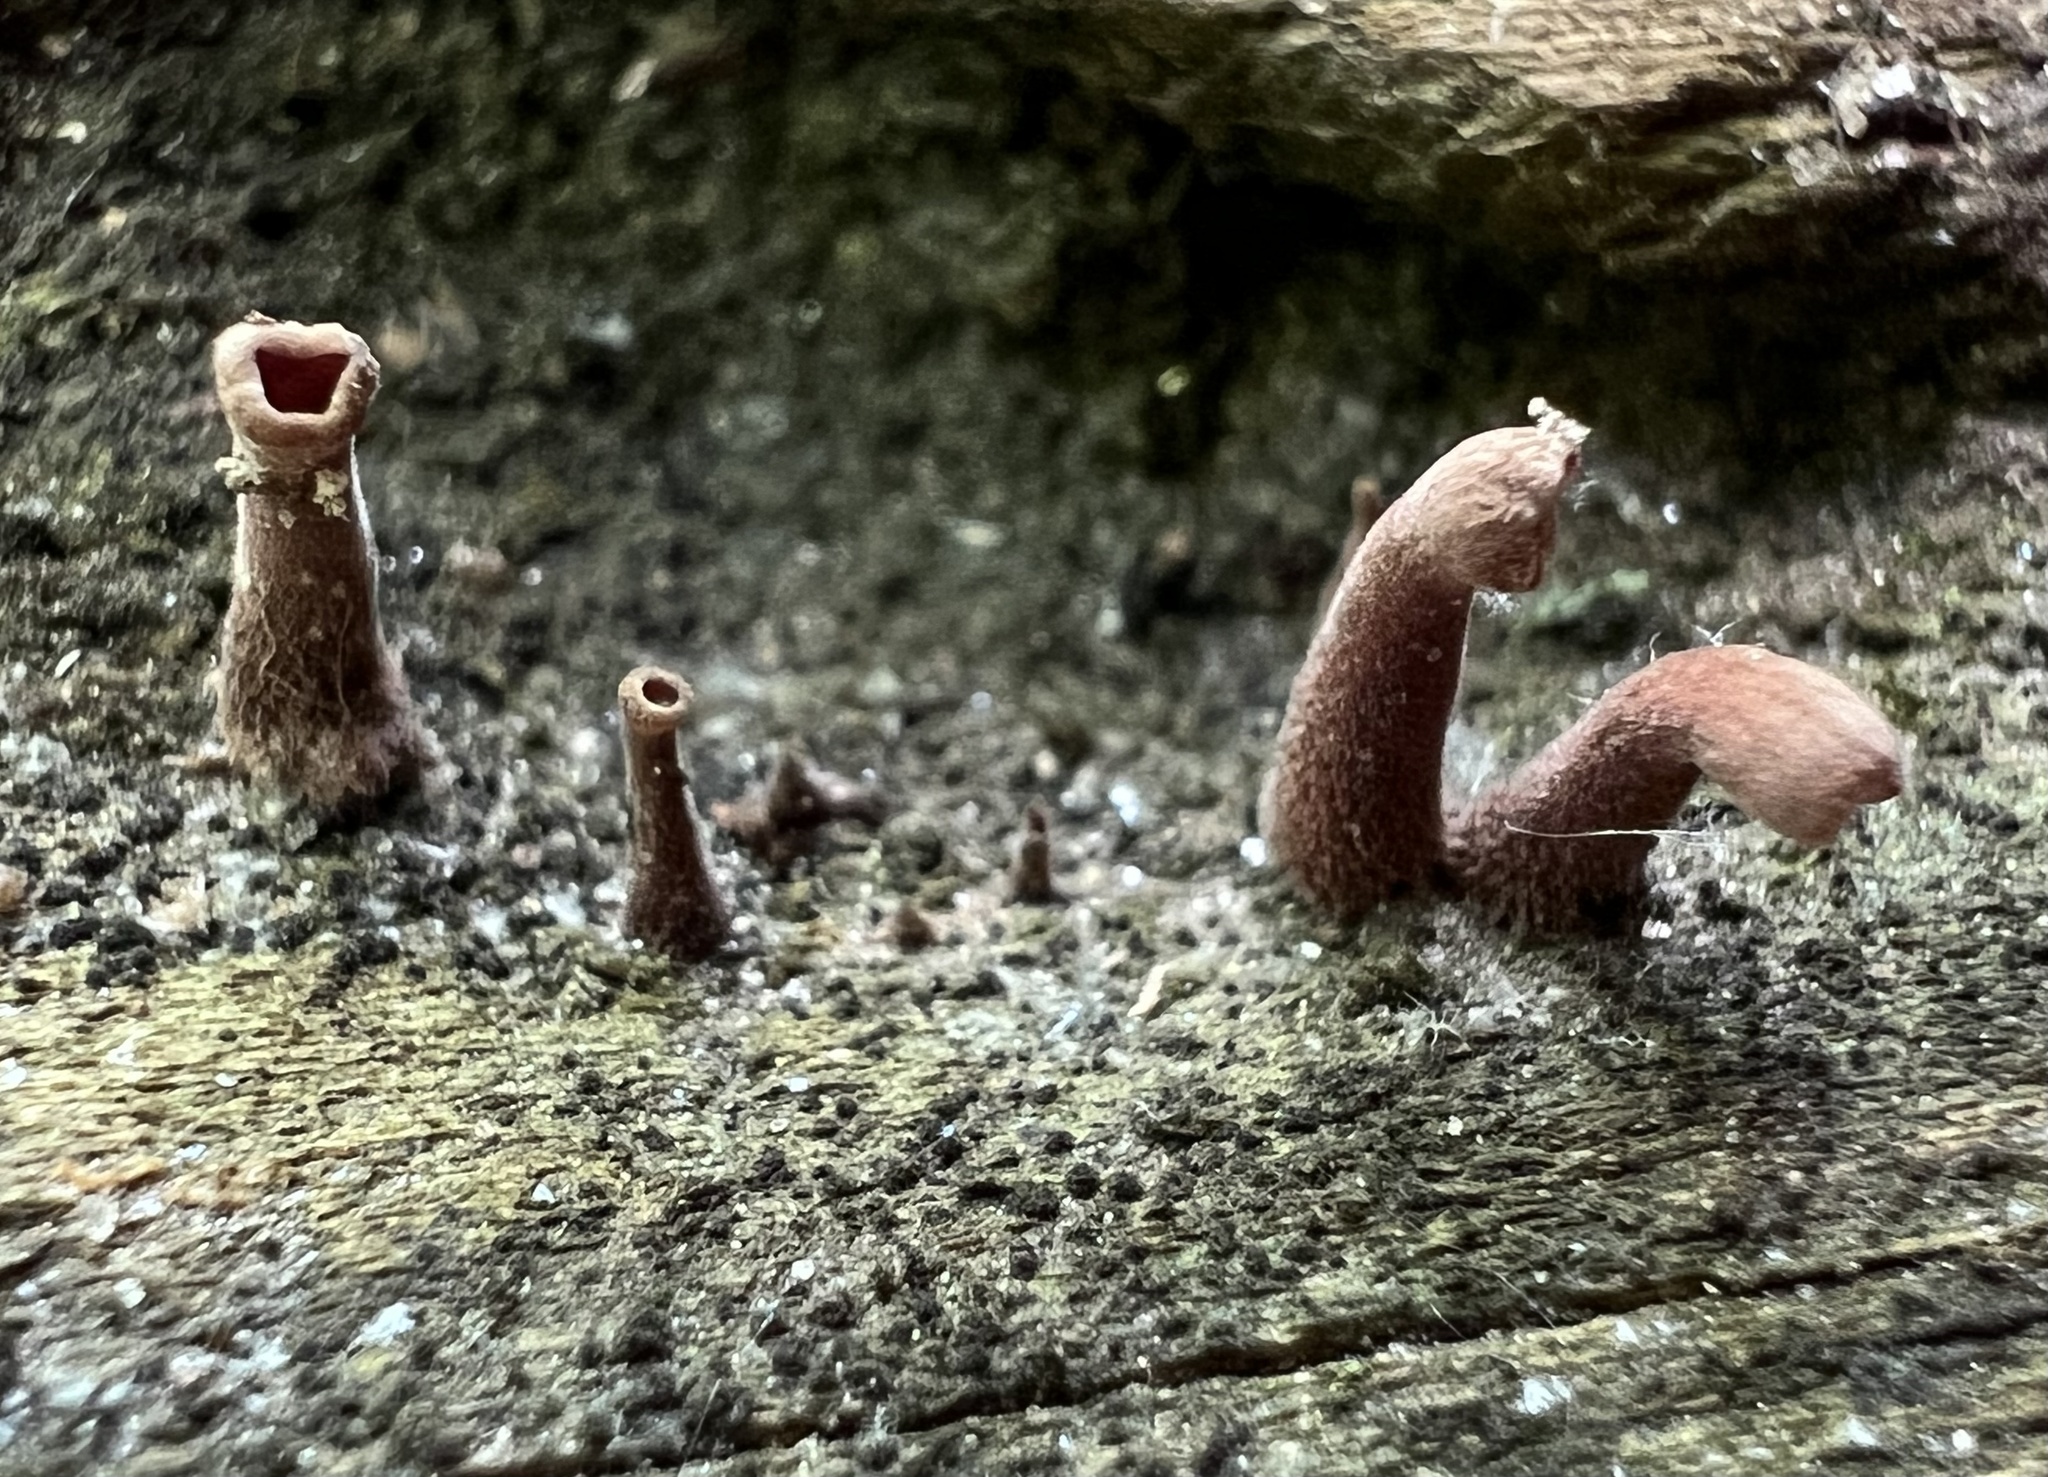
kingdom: Fungi
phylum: Basidiomycota
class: Dacrymycetes
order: Dacrymycetales
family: Dacrymycetaceae
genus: Dacryopinax
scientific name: Dacryopinax elegans
